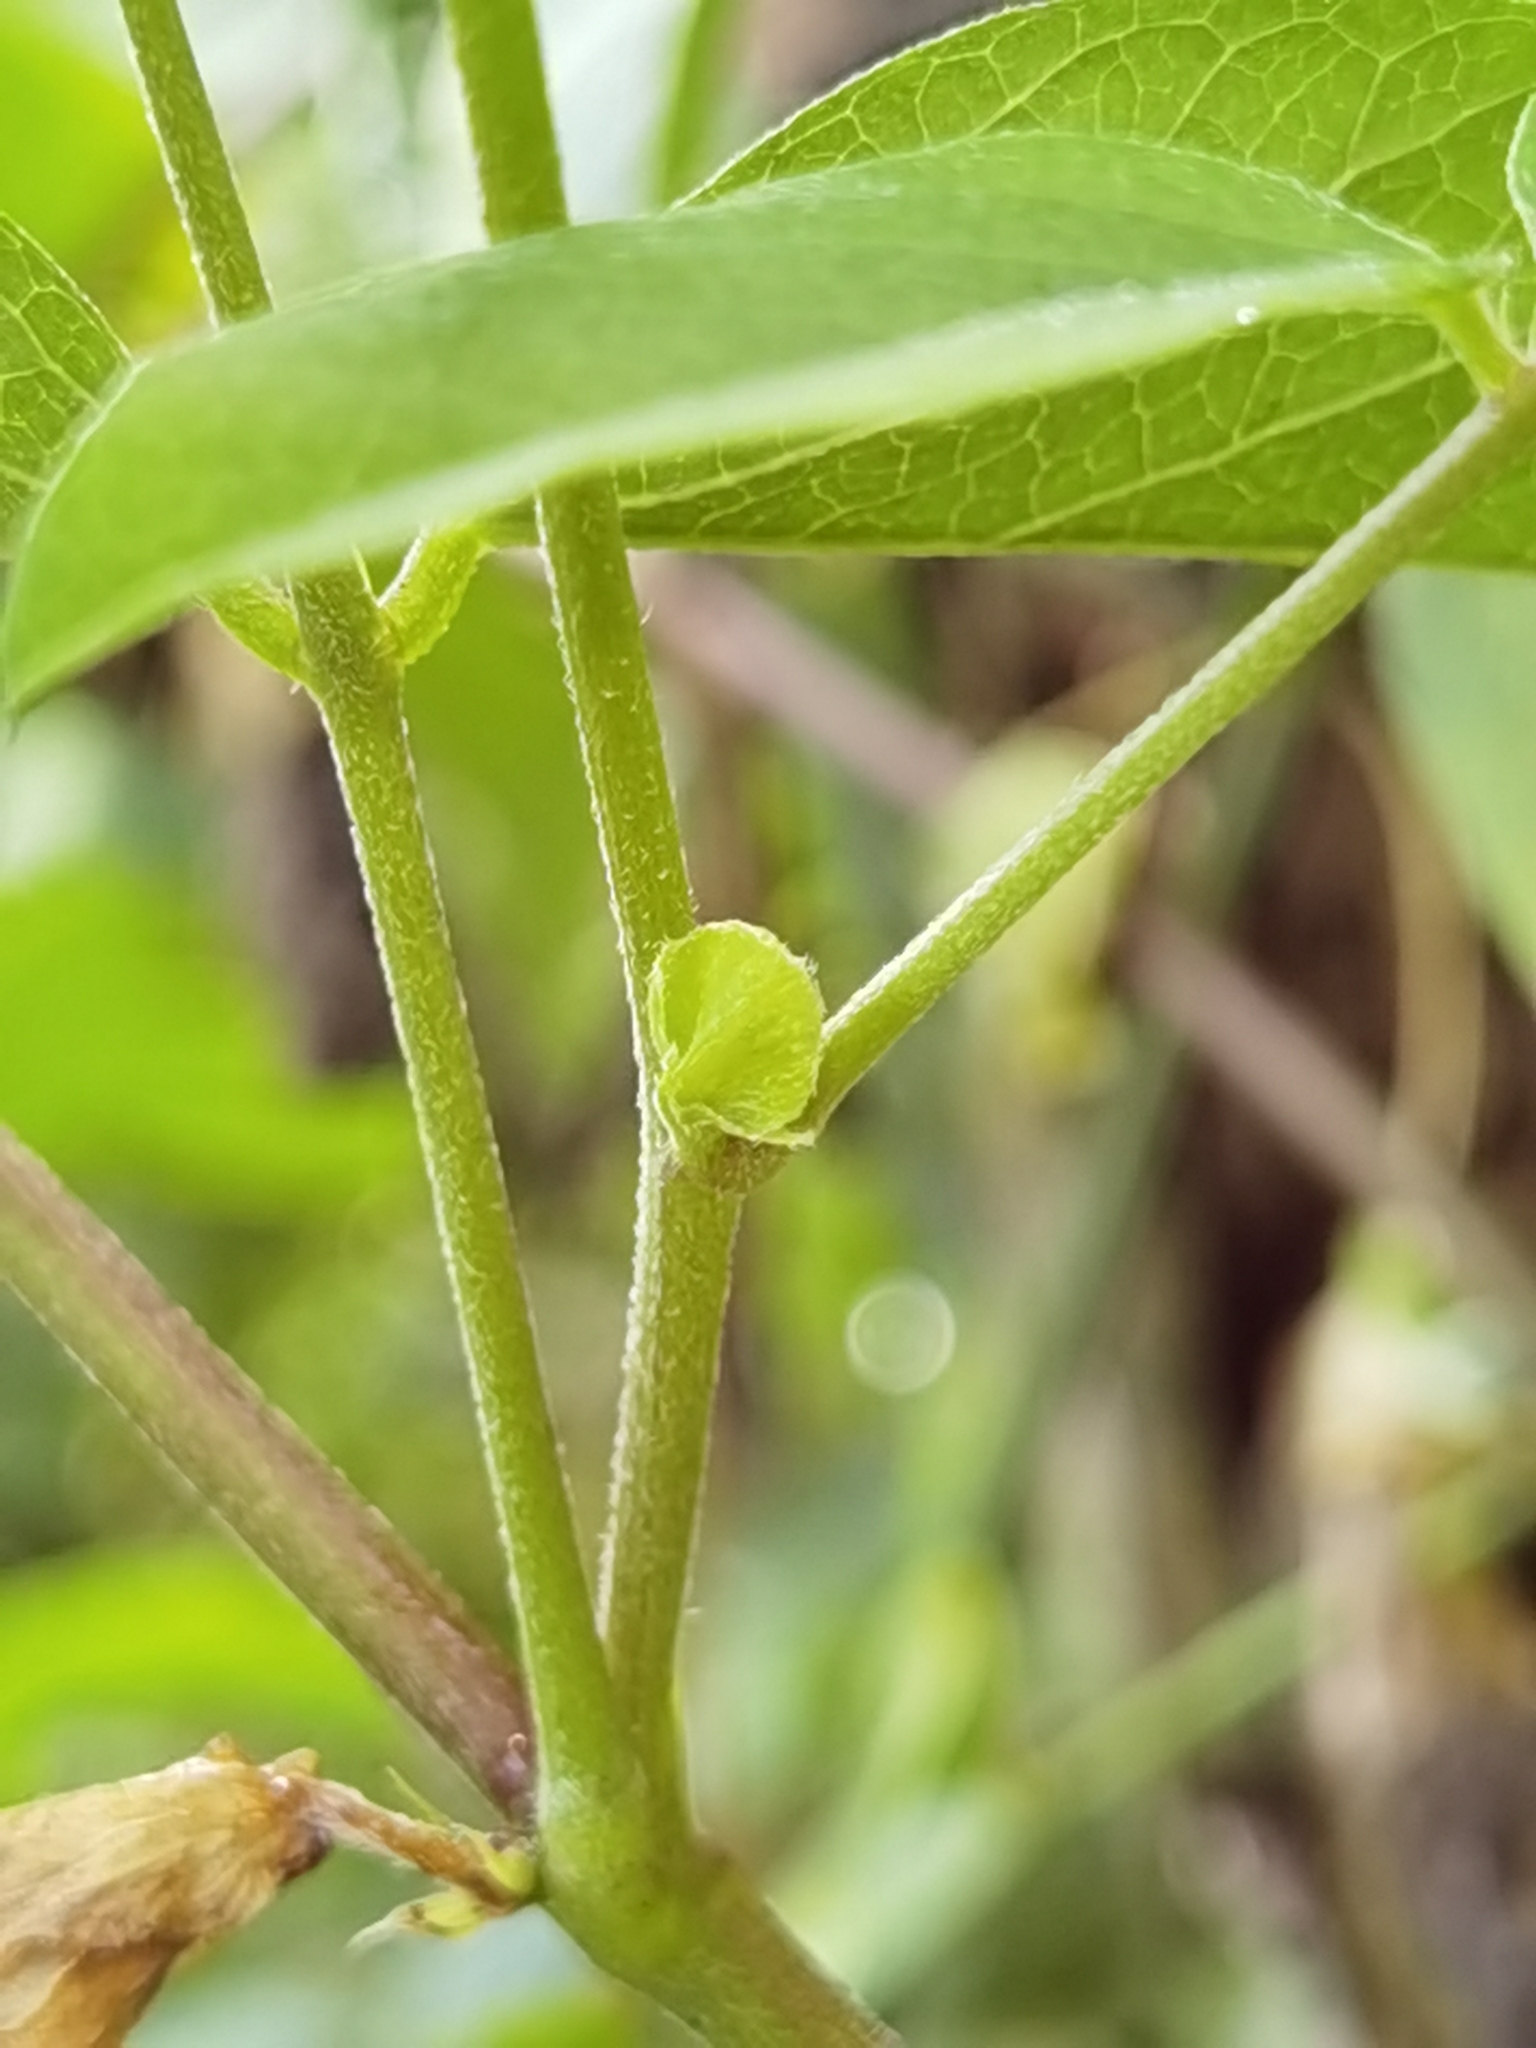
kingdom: Plantae
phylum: Tracheophyta
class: Magnoliopsida
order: Fabales
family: Fabaceae
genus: Clitoria
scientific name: Clitoria ternatea
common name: Asian pigeonwings
